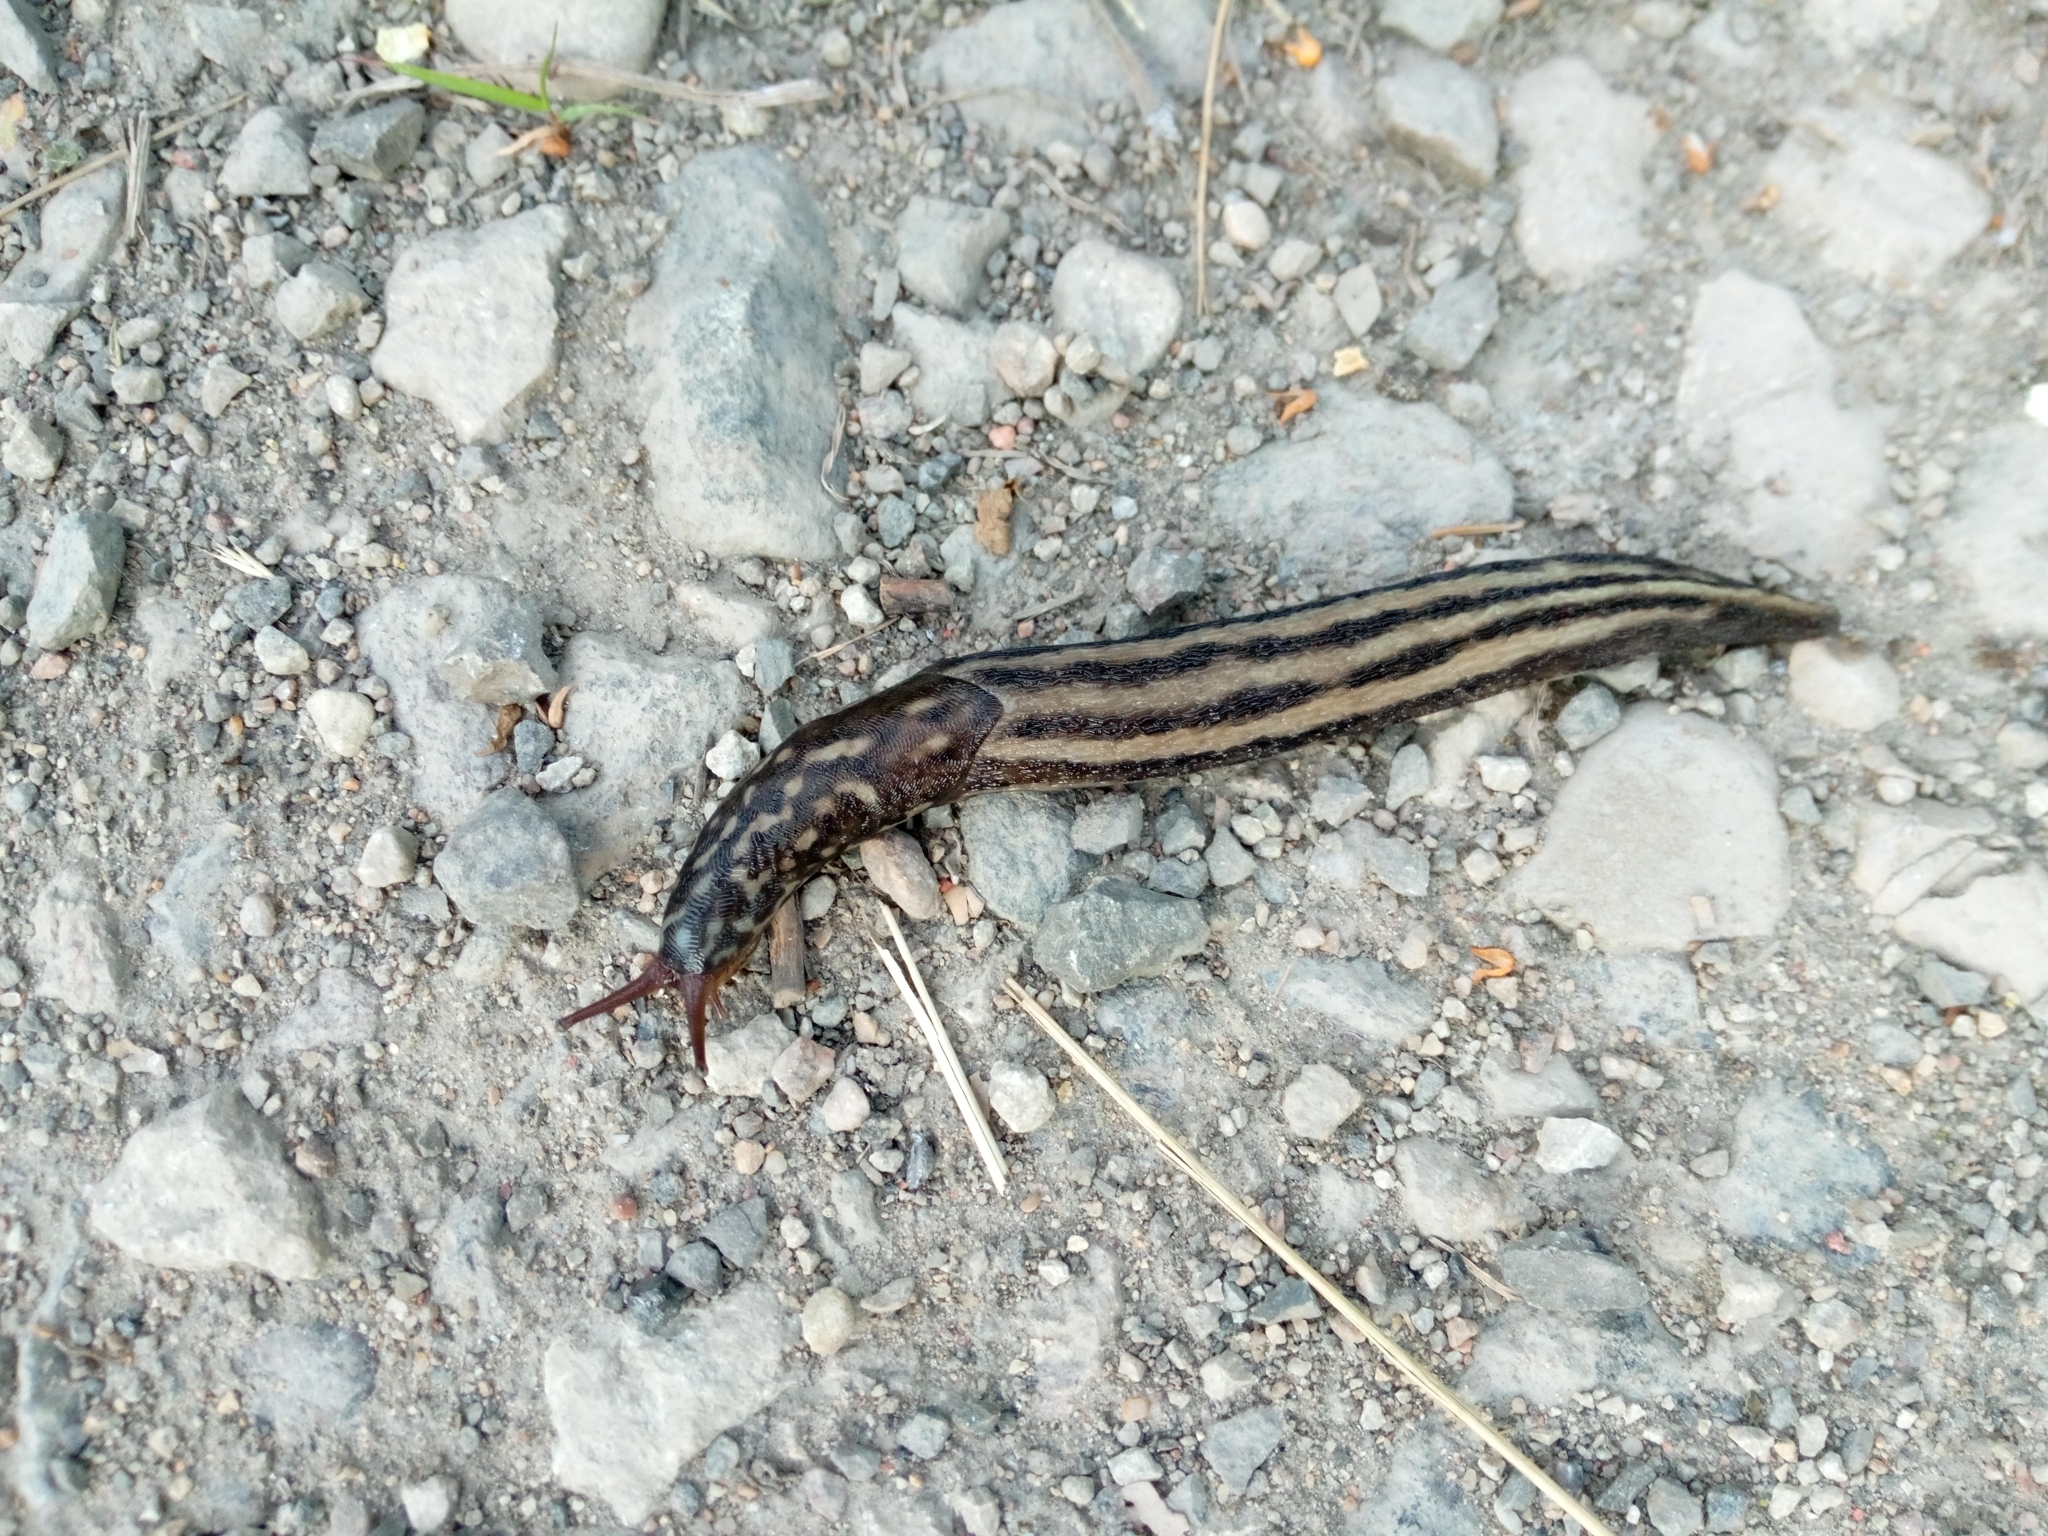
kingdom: Animalia
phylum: Mollusca
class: Gastropoda
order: Stylommatophora
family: Limacidae
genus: Limax
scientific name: Limax maximus
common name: Great grey slug
